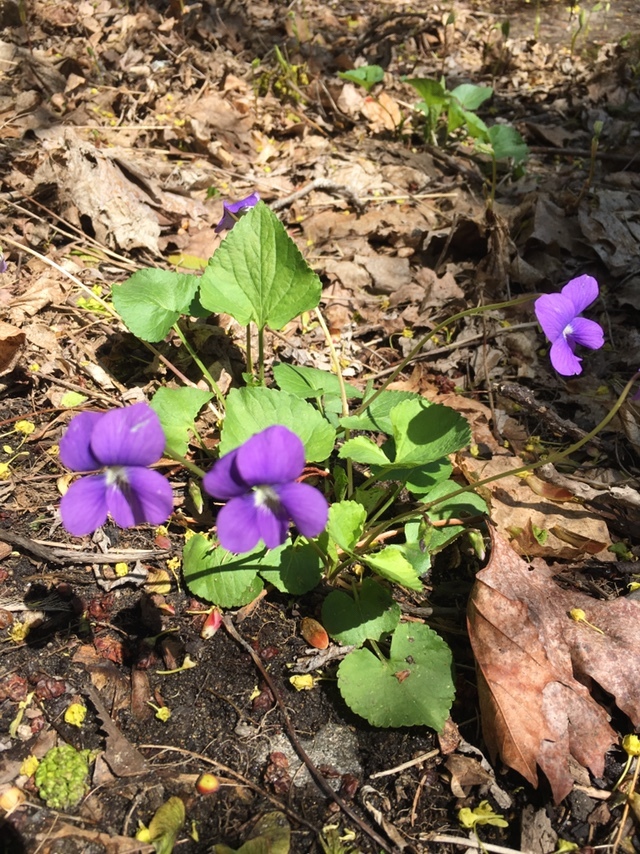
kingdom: Plantae
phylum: Tracheophyta
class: Magnoliopsida
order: Malpighiales
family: Violaceae
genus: Viola
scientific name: Viola sororia
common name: Dooryard violet
